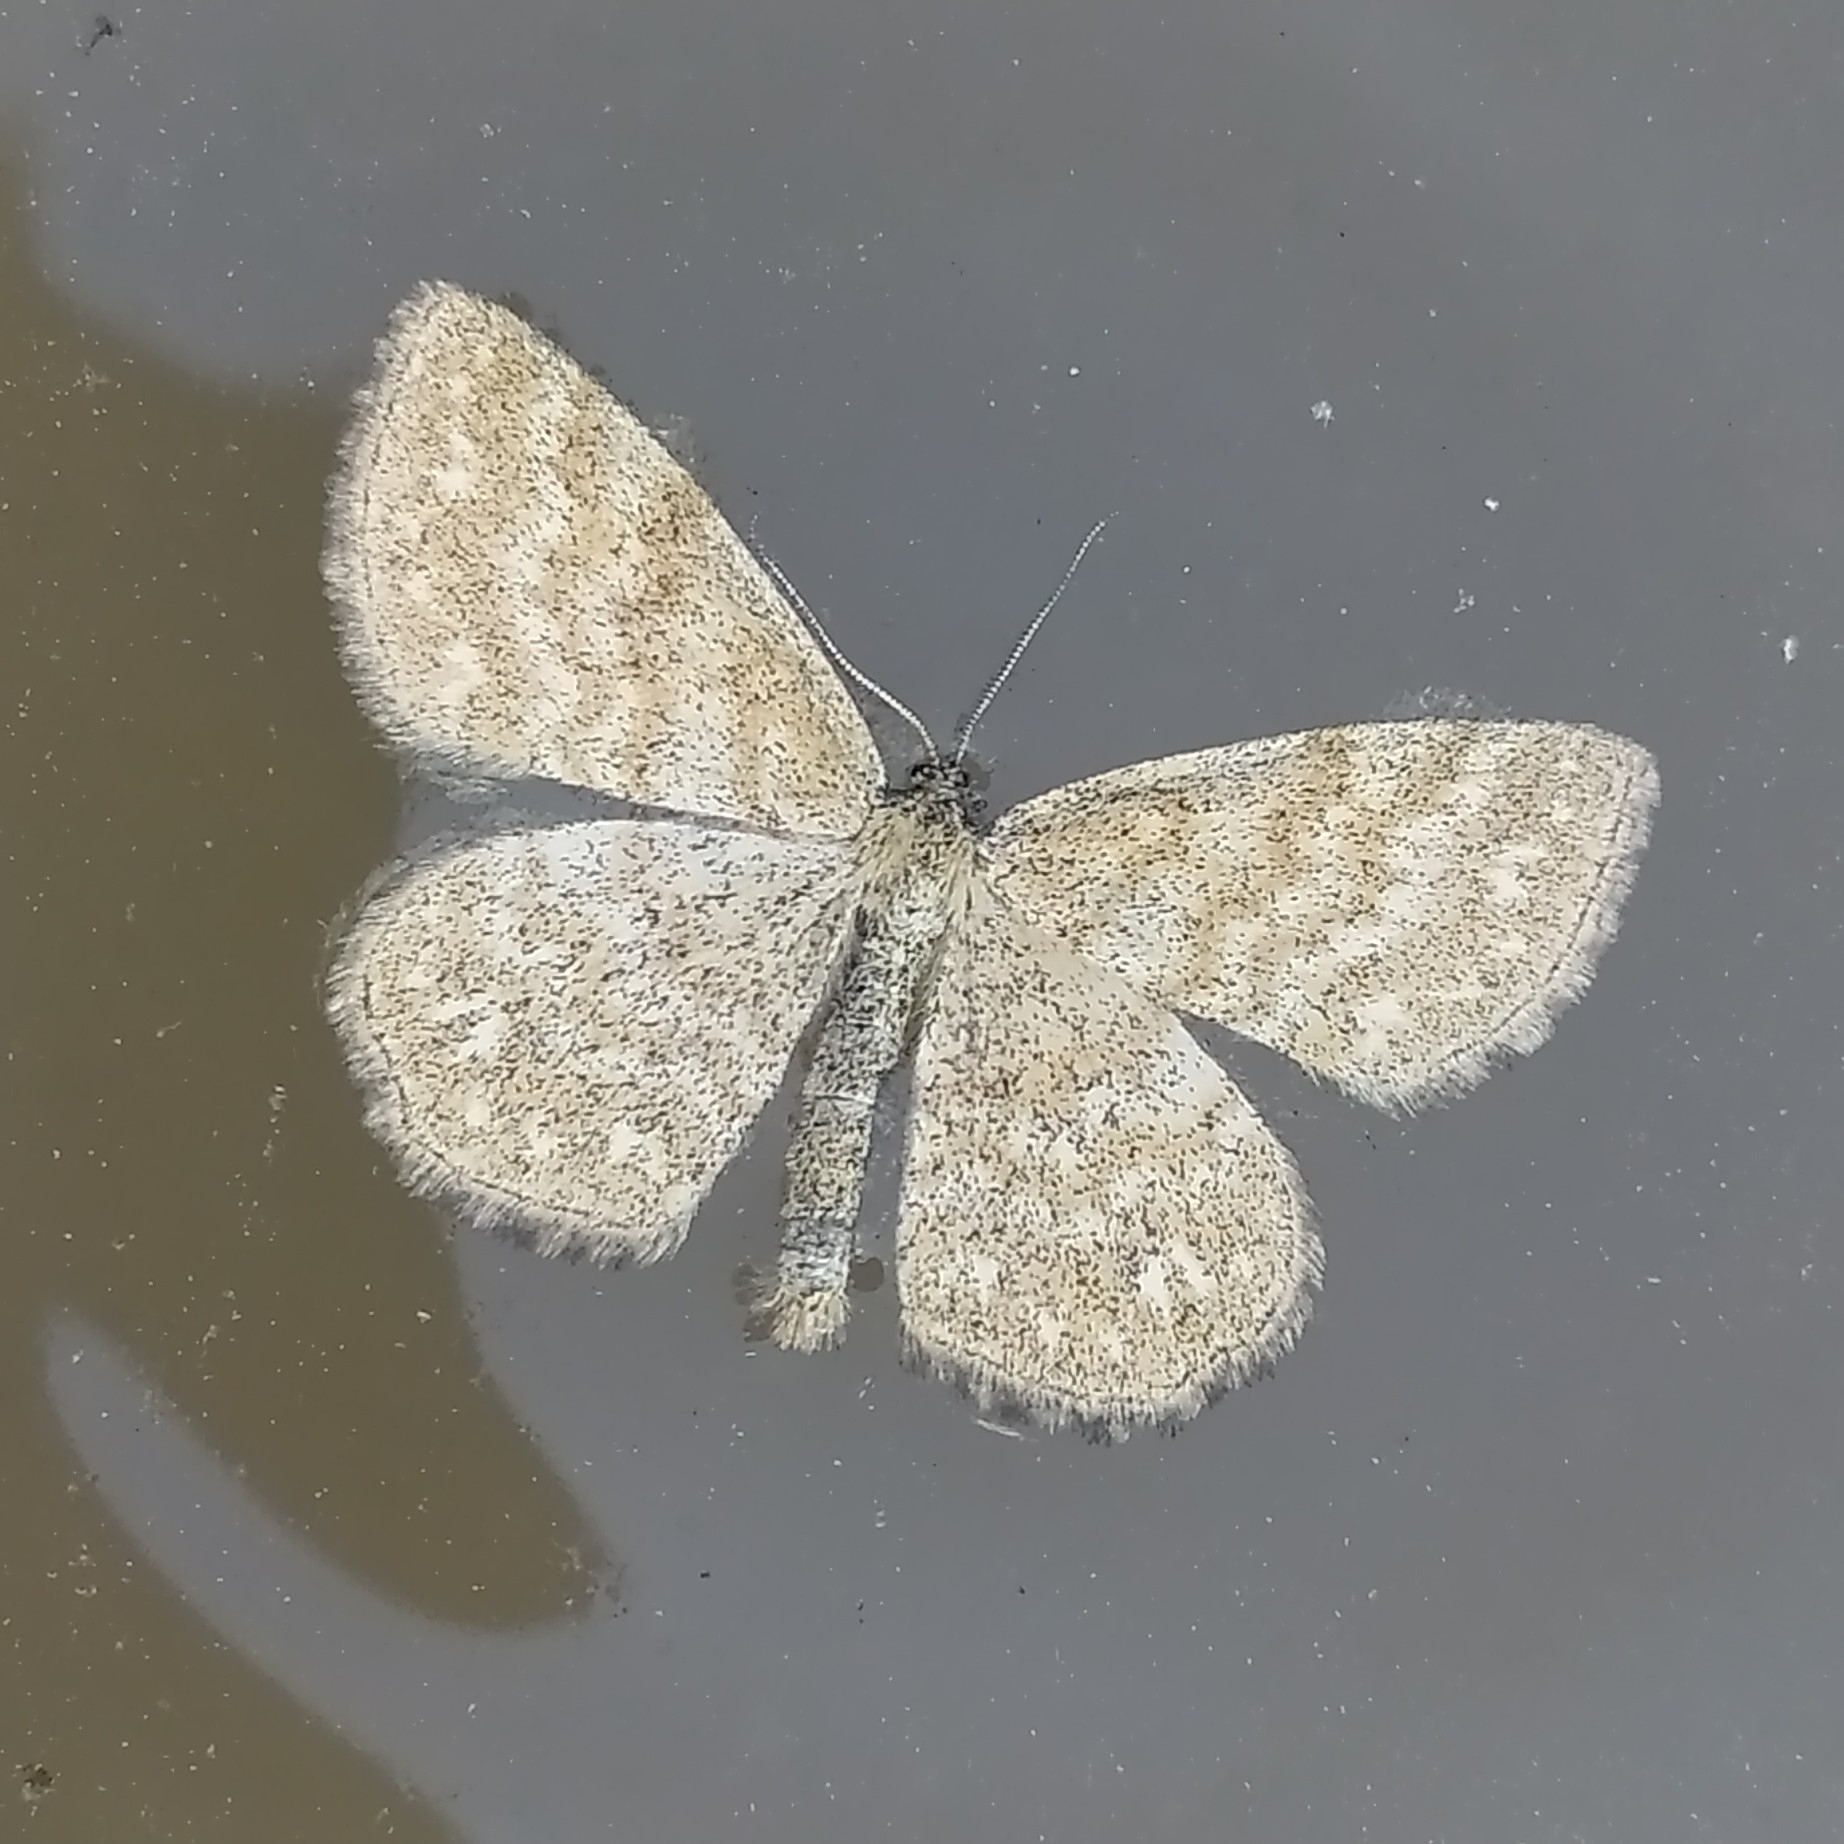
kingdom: Animalia
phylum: Arthropoda
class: Insecta
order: Lepidoptera
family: Geometridae
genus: Scopula
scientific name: Scopula immorata
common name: Lewes wave
